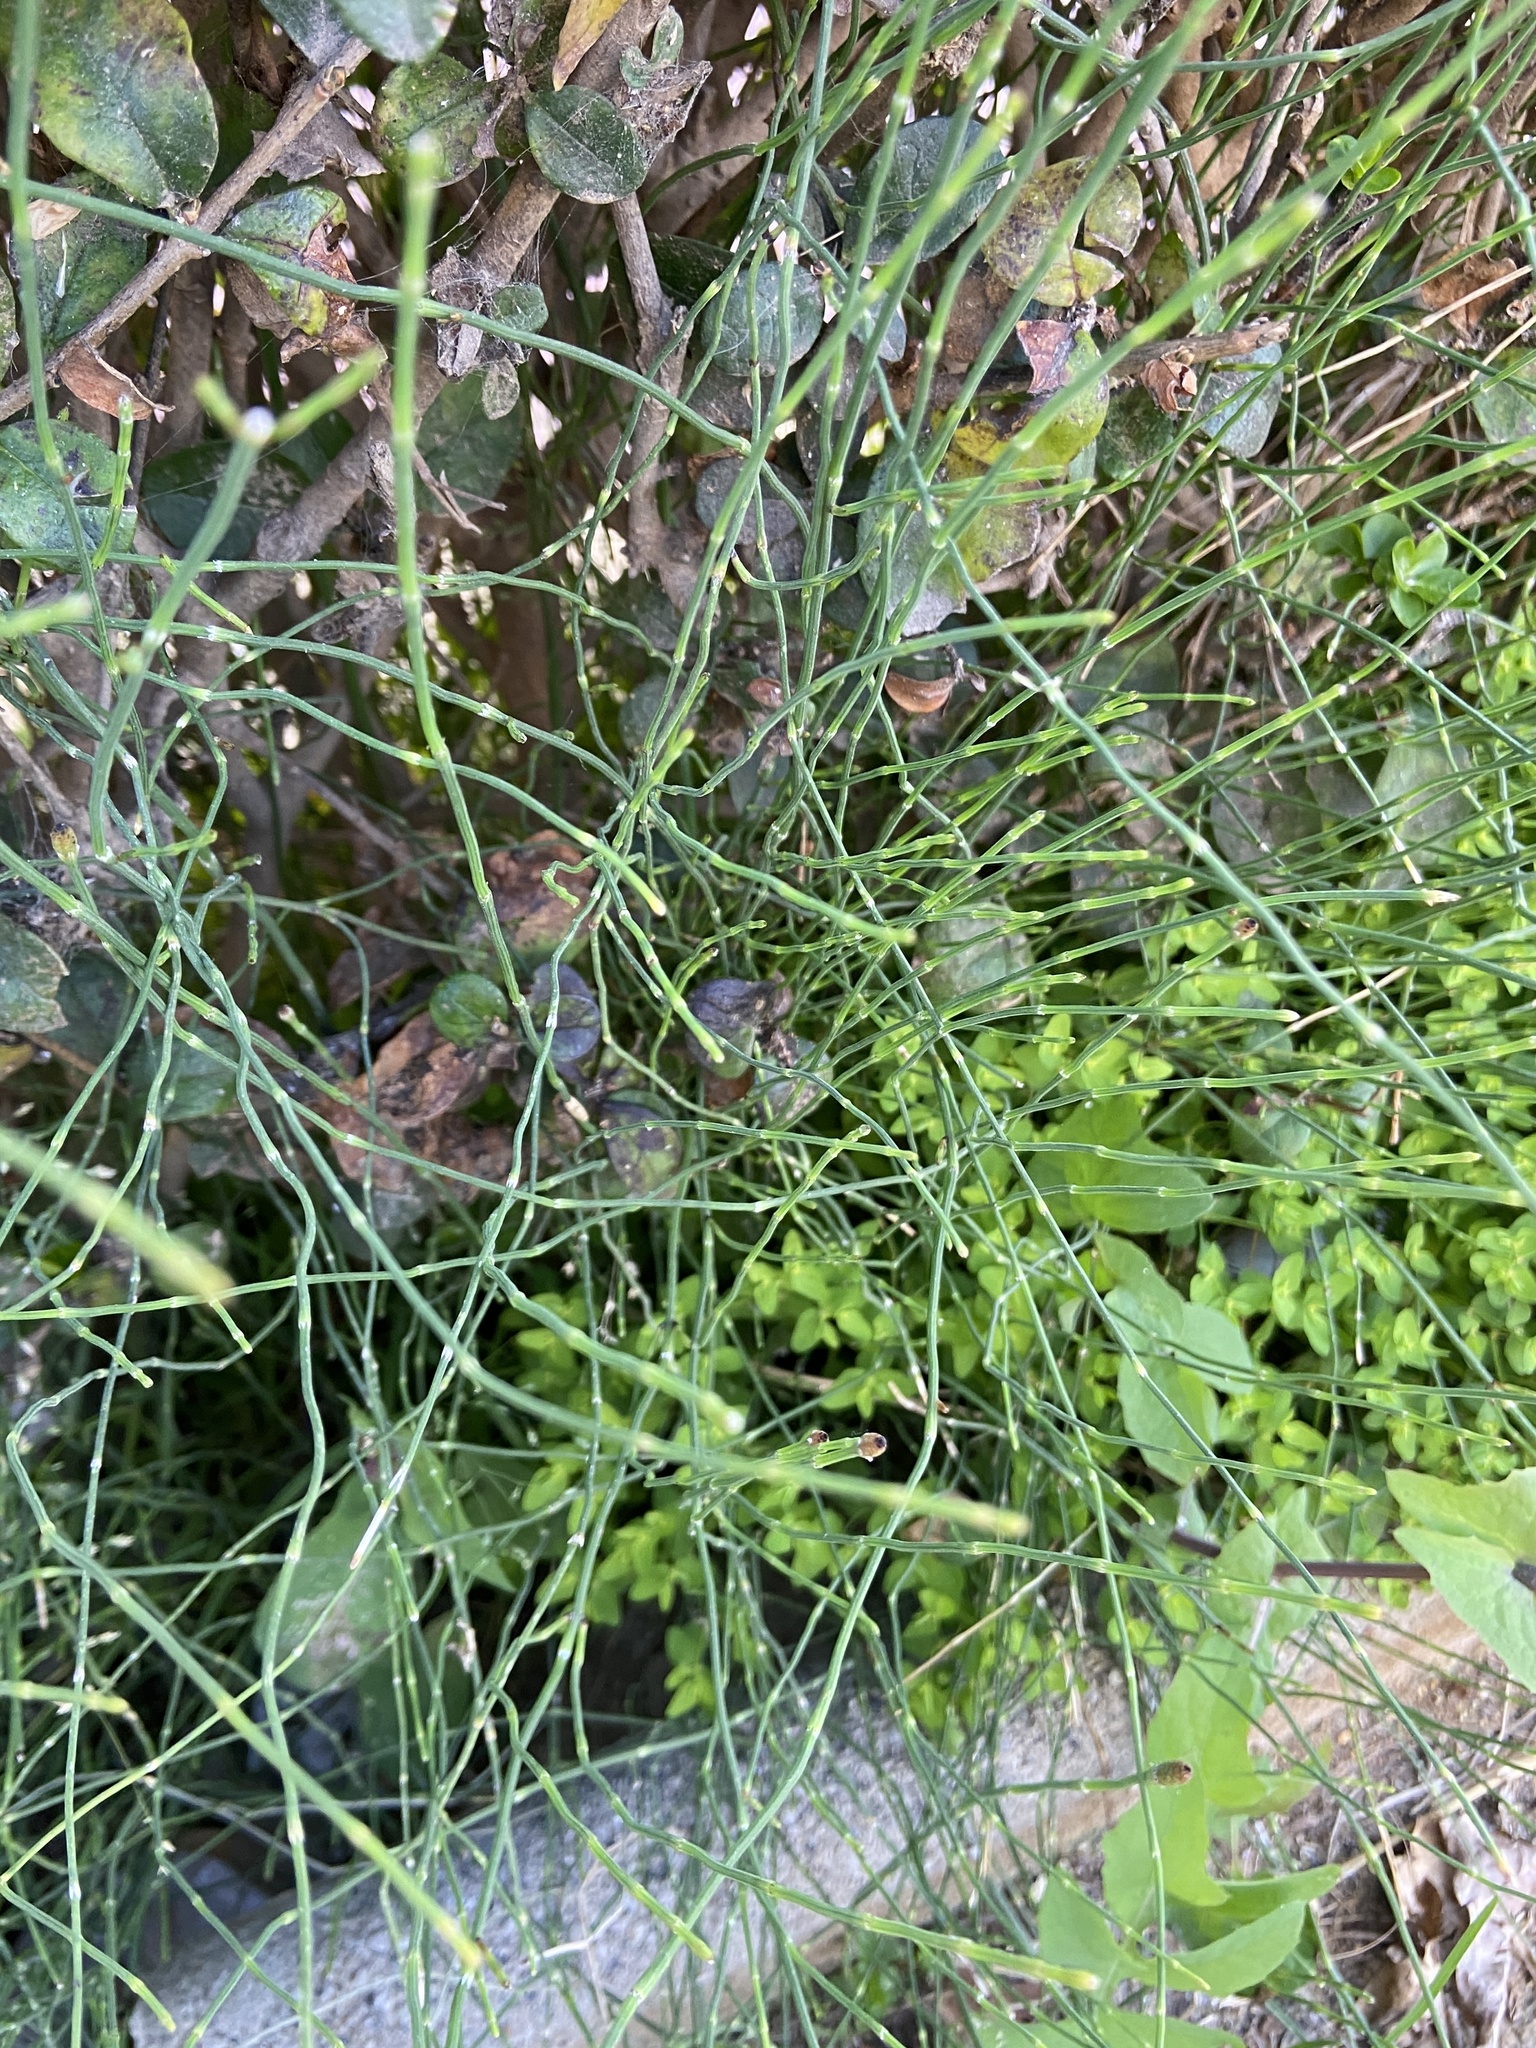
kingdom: Plantae
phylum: Tracheophyta
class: Polypodiopsida
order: Equisetales
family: Equisetaceae
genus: Equisetum
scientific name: Equisetum ramosissimum
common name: Branched horsetail
